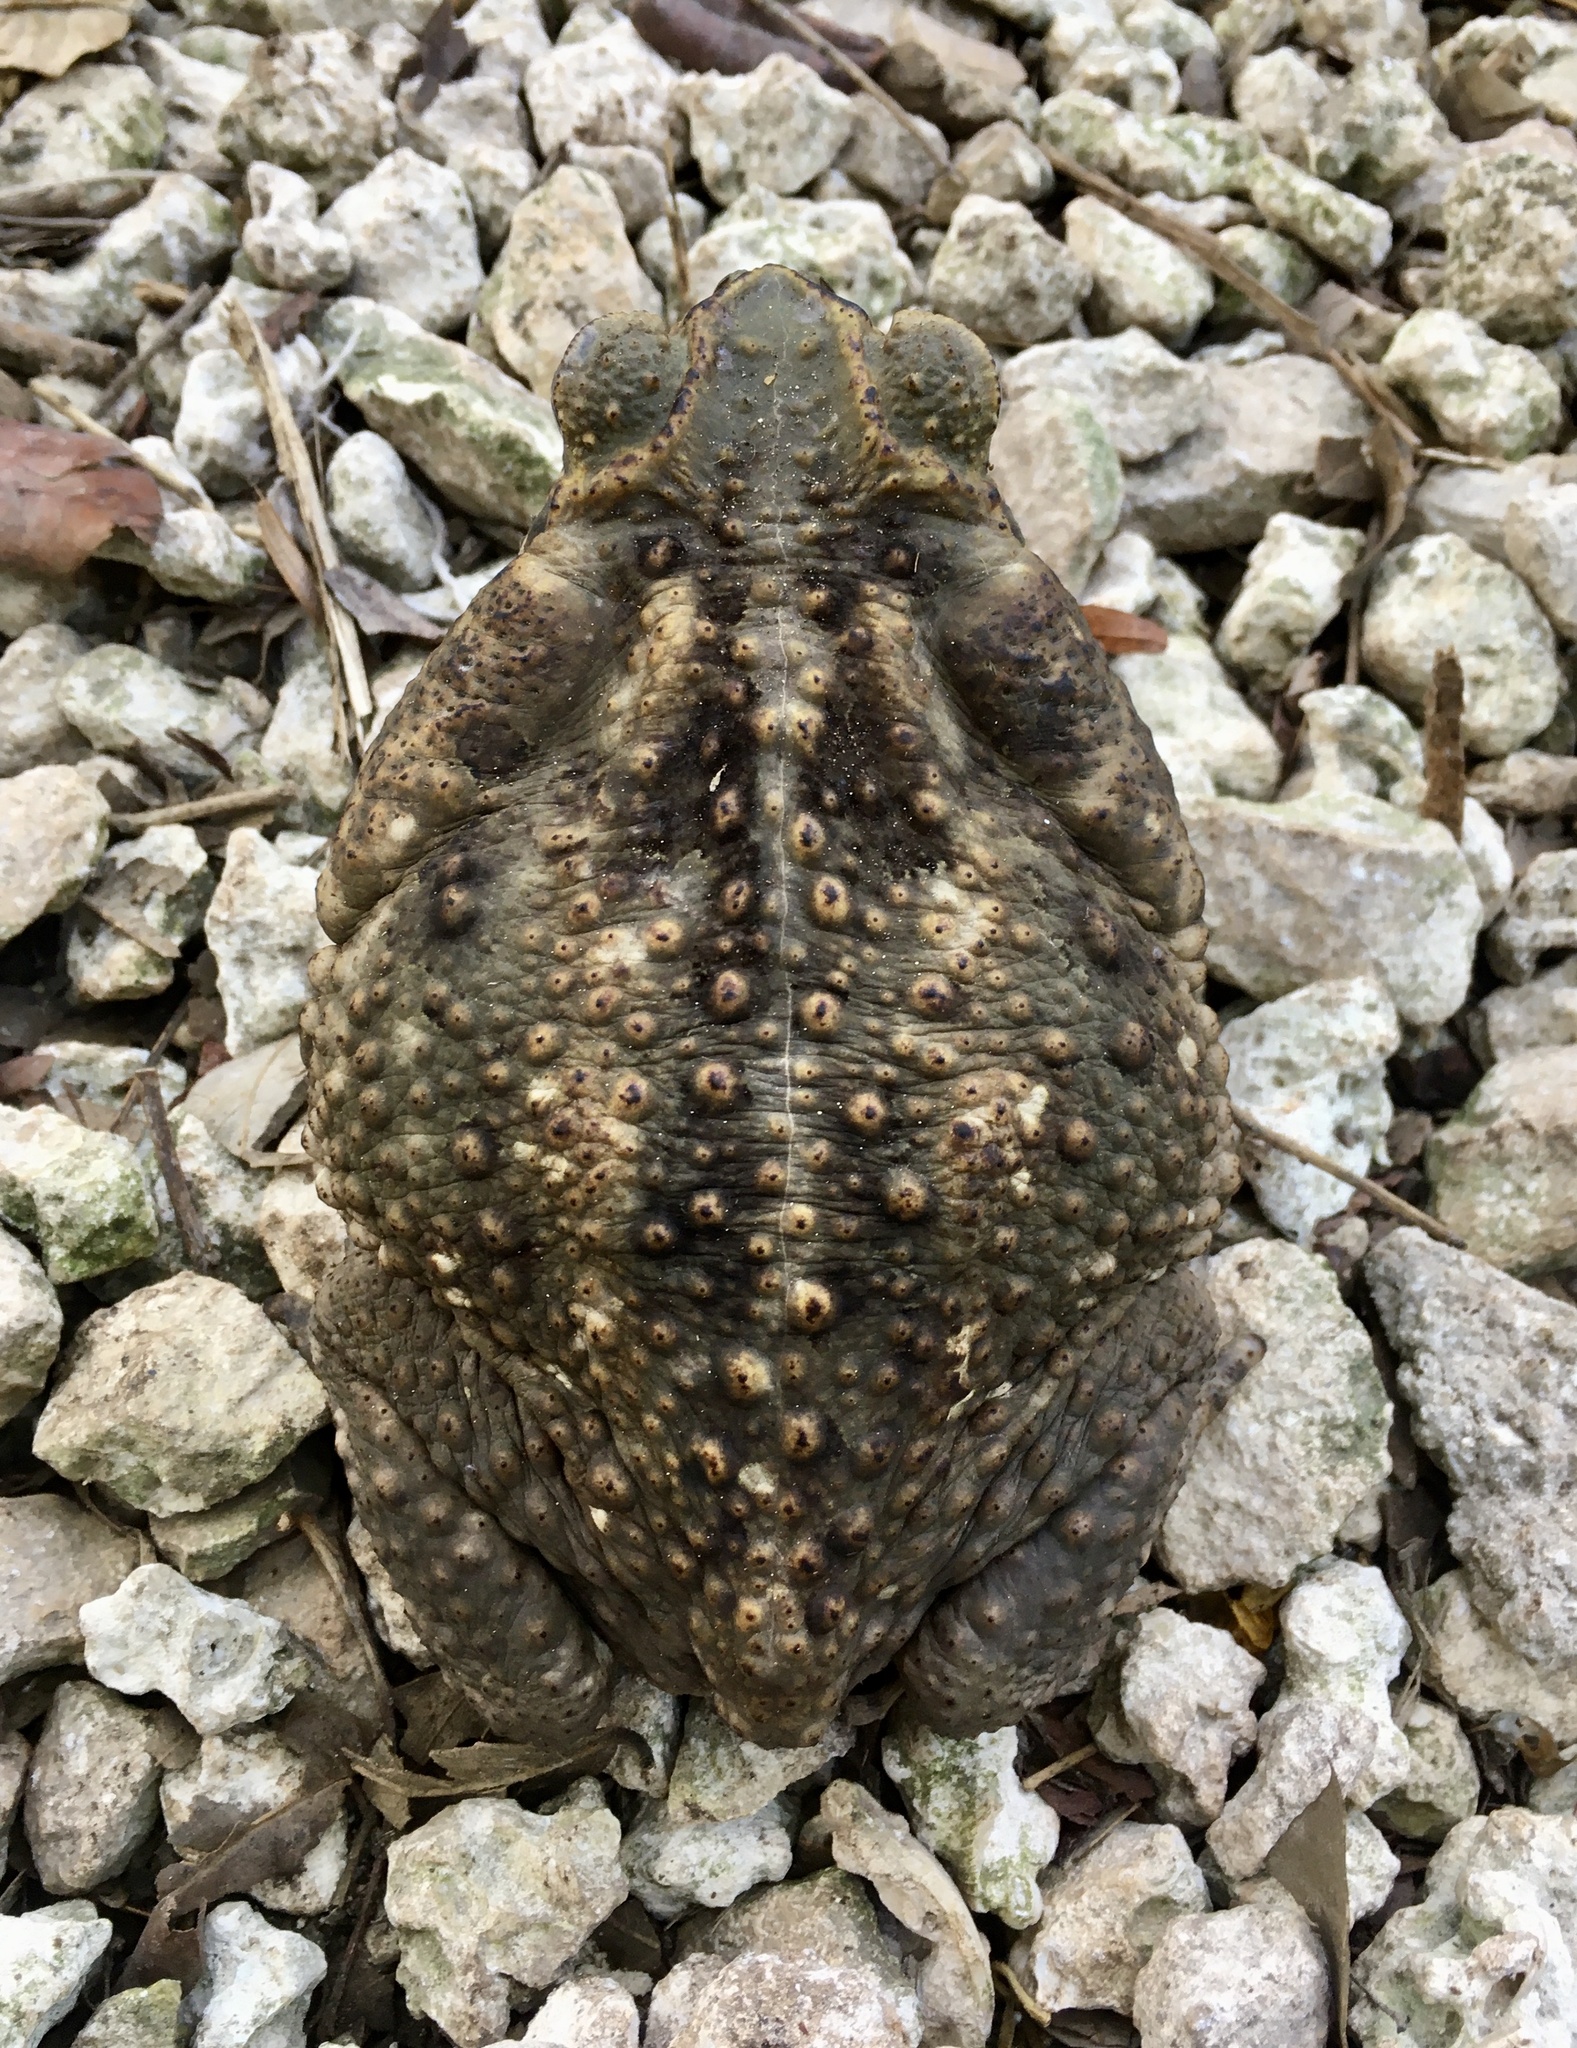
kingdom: Animalia
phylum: Chordata
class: Amphibia
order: Anura
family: Bufonidae
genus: Rhinella
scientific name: Rhinella horribilis
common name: Mesoamerican cane toad
